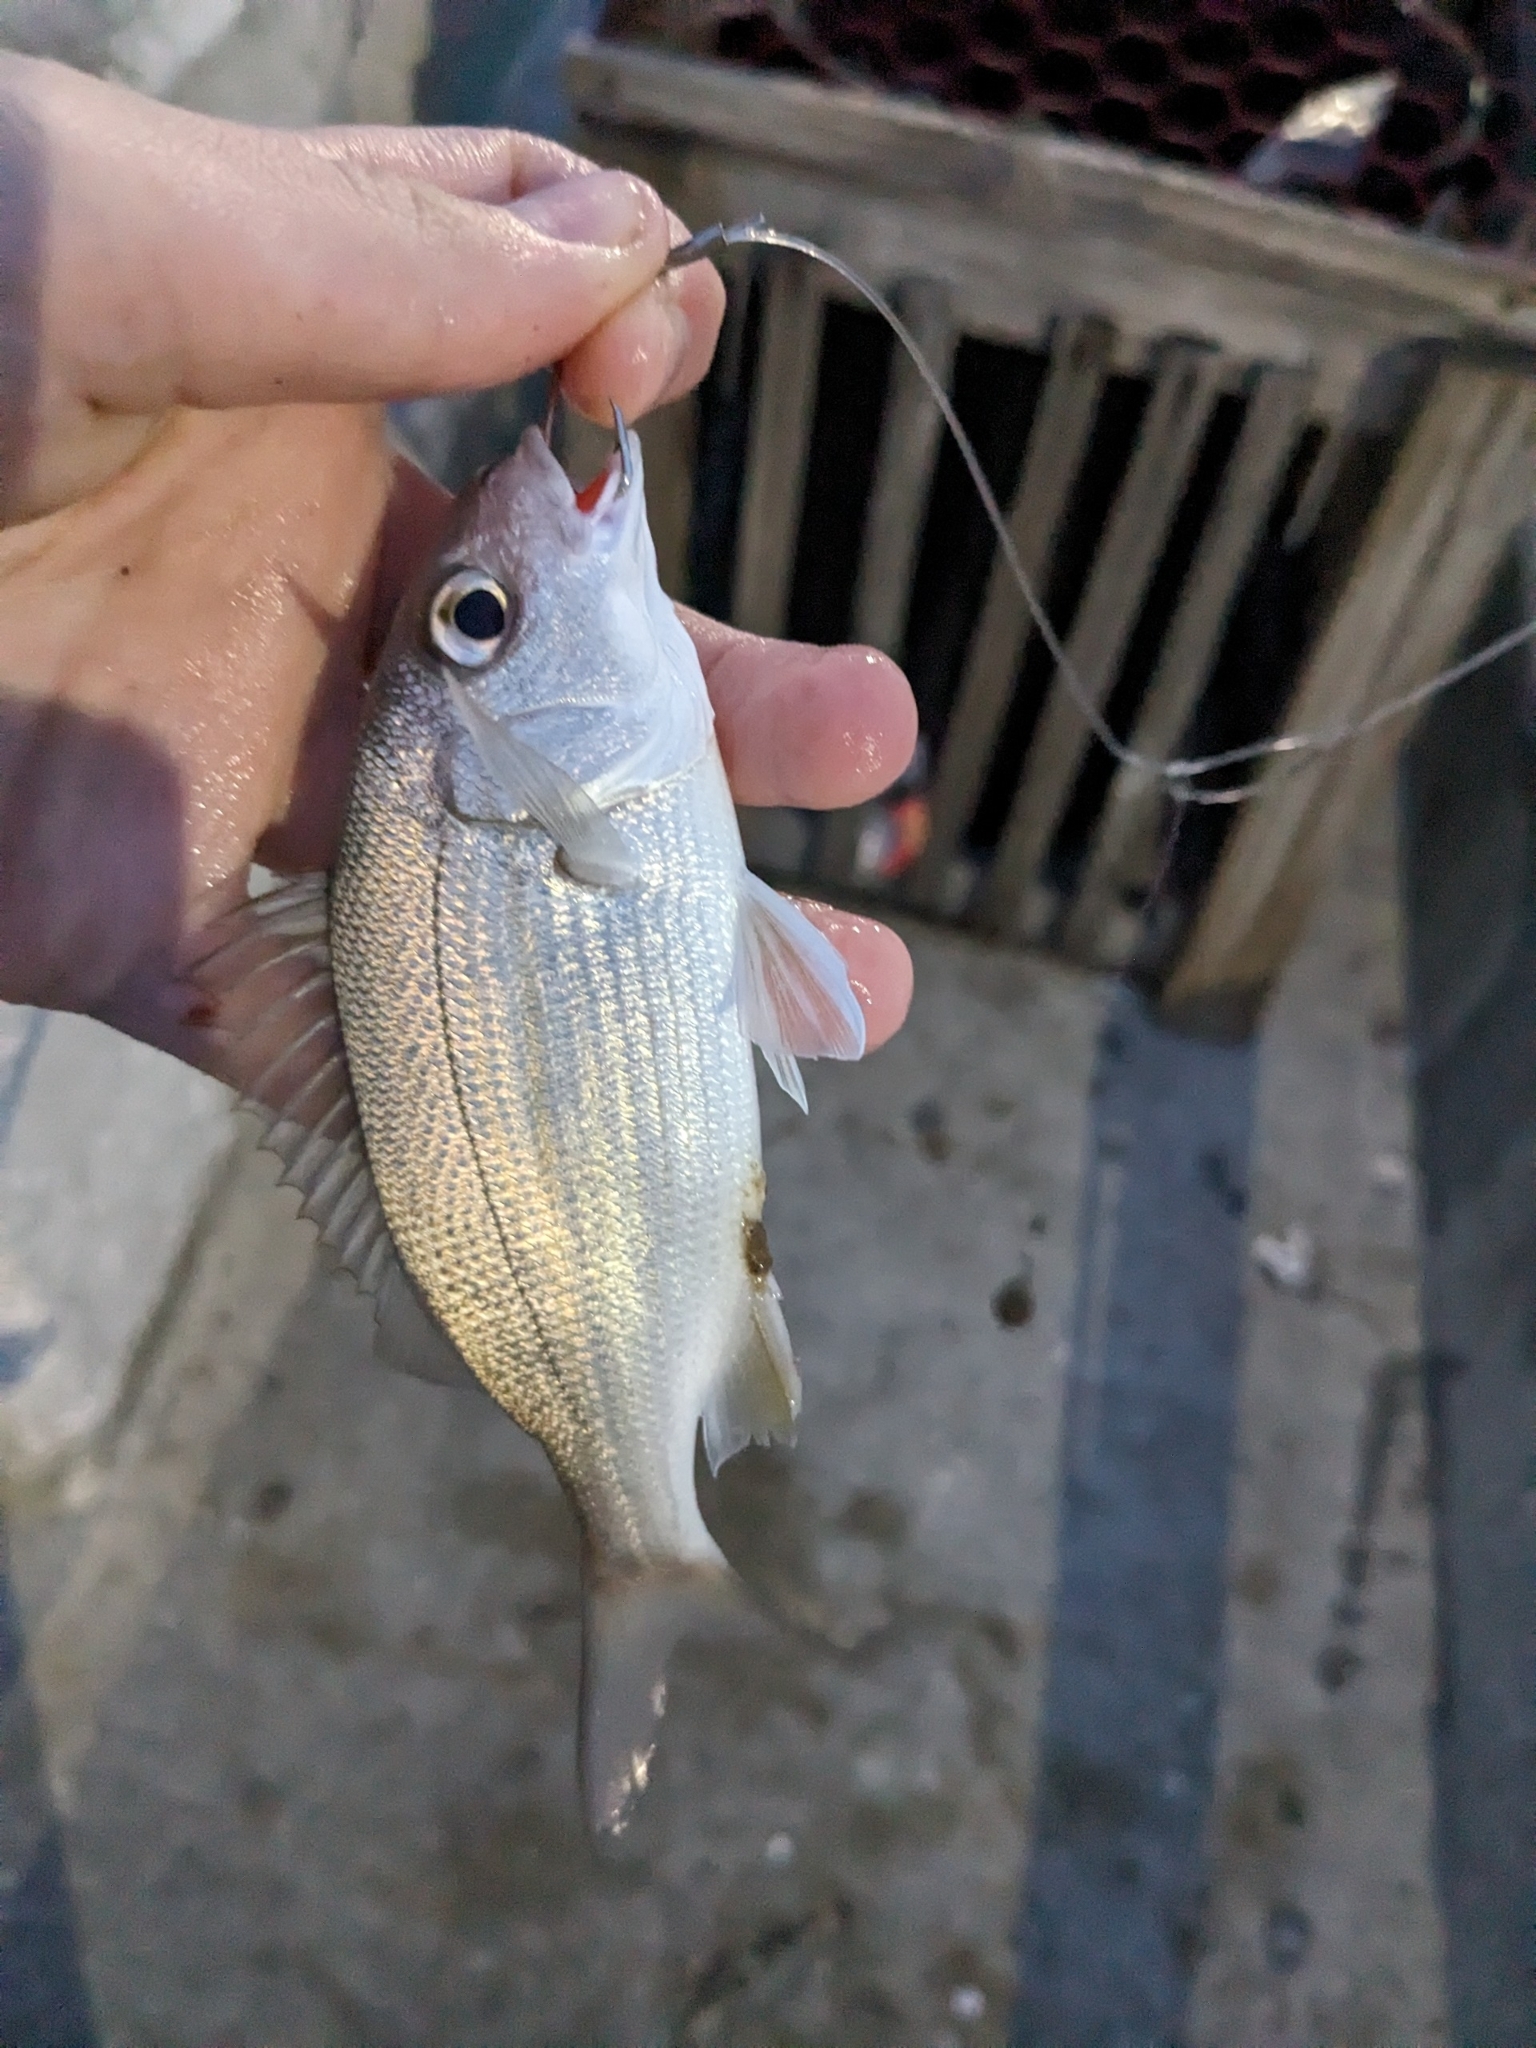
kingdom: Animalia
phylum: Chordata
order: Perciformes
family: Haemulidae
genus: Haemulon
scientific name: Haemulon aurolineatum
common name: Tomtate
